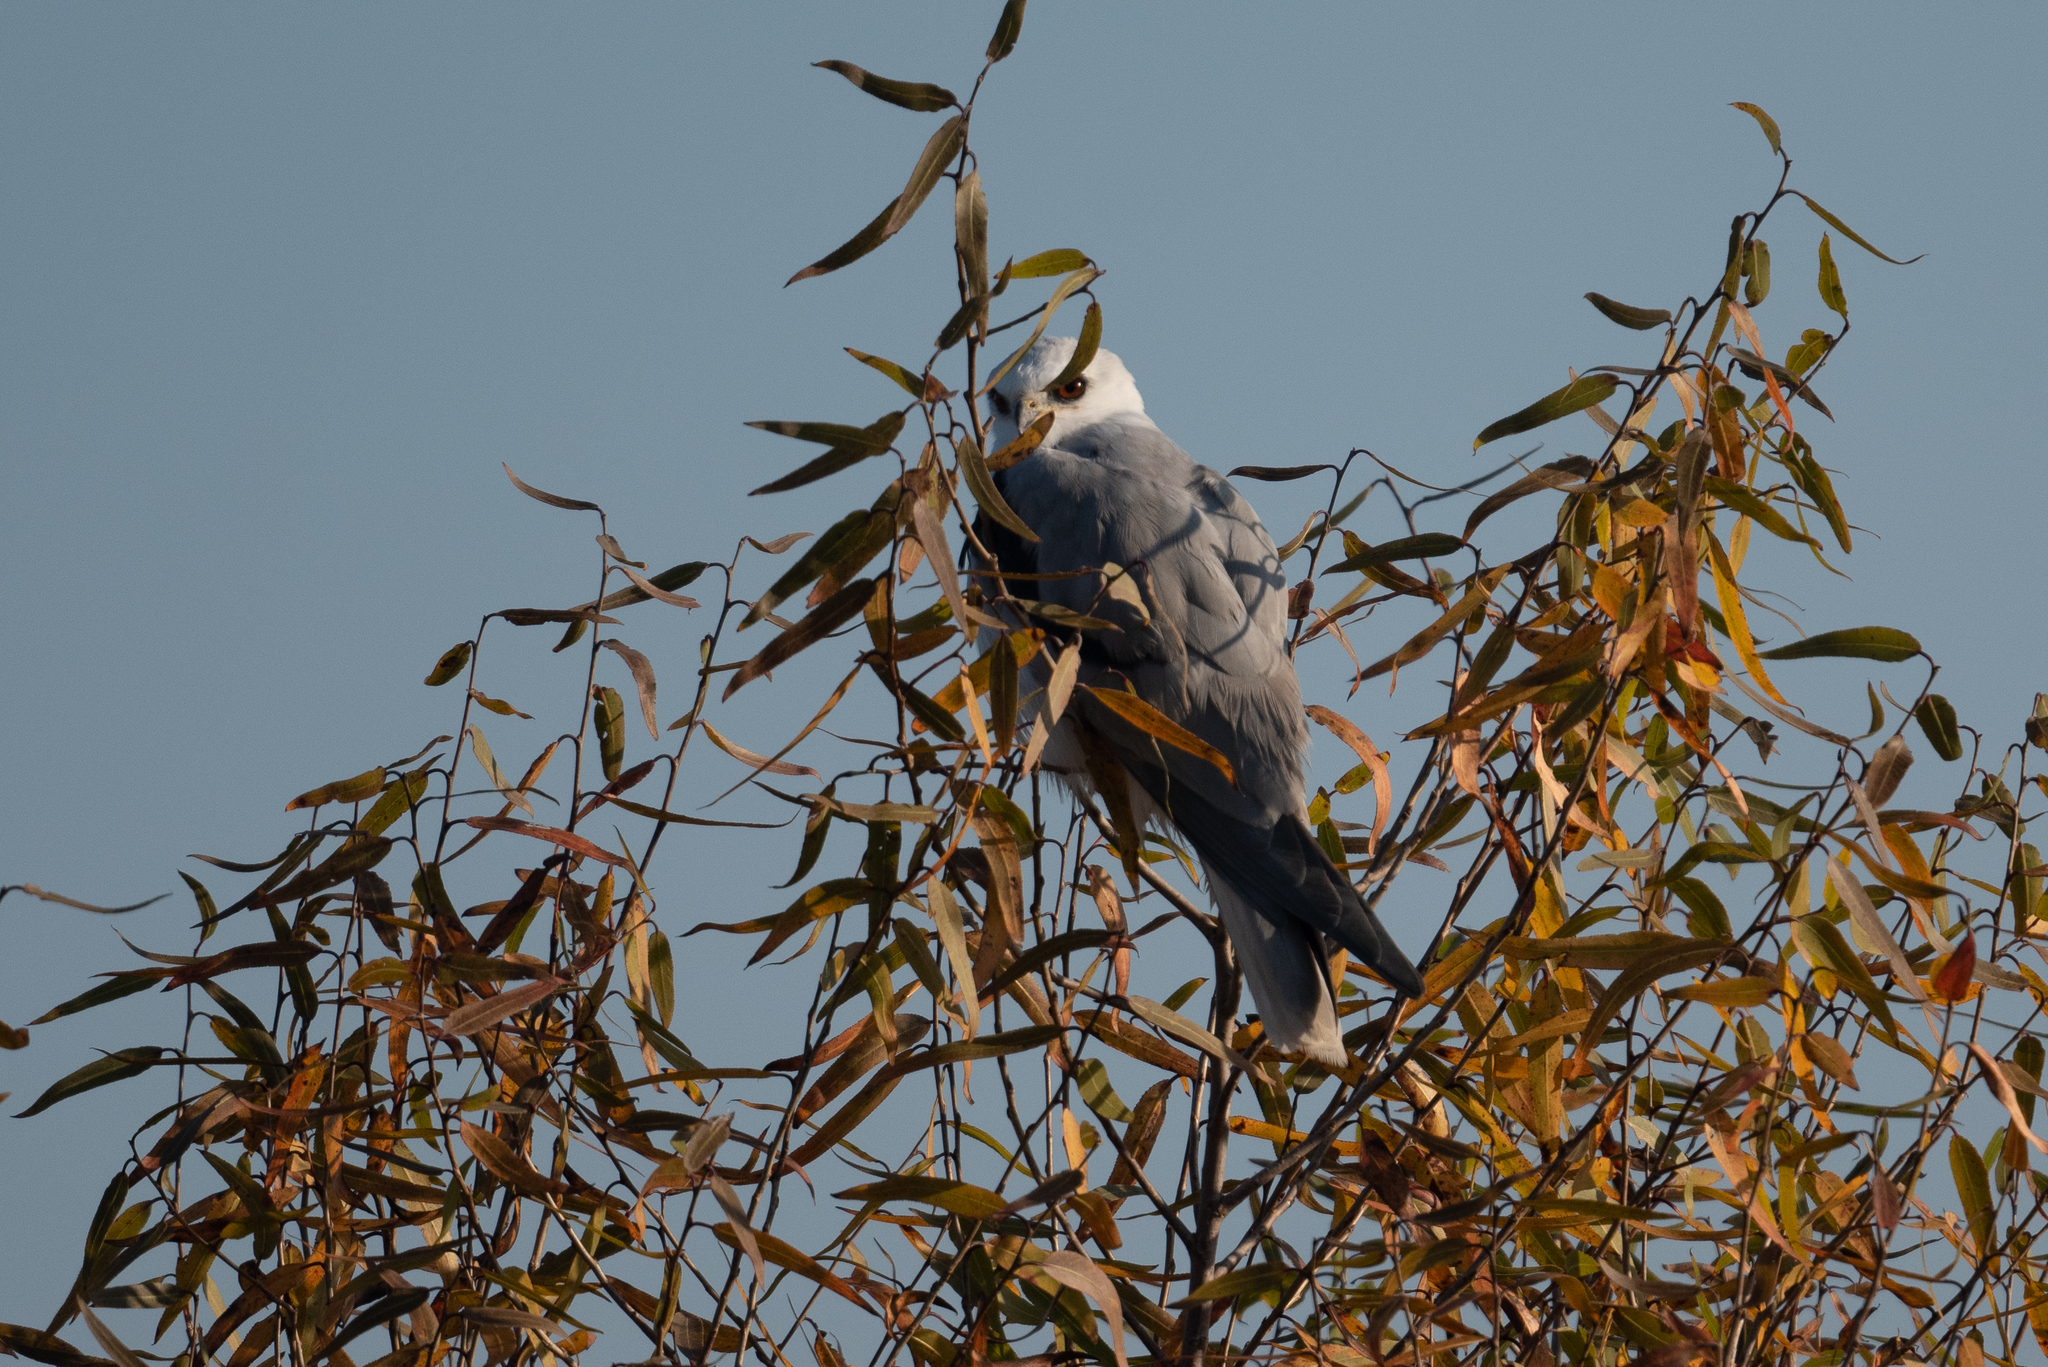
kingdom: Animalia
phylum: Chordata
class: Aves
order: Accipitriformes
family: Accipitridae
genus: Elanus
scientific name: Elanus leucurus
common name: White-tailed kite
